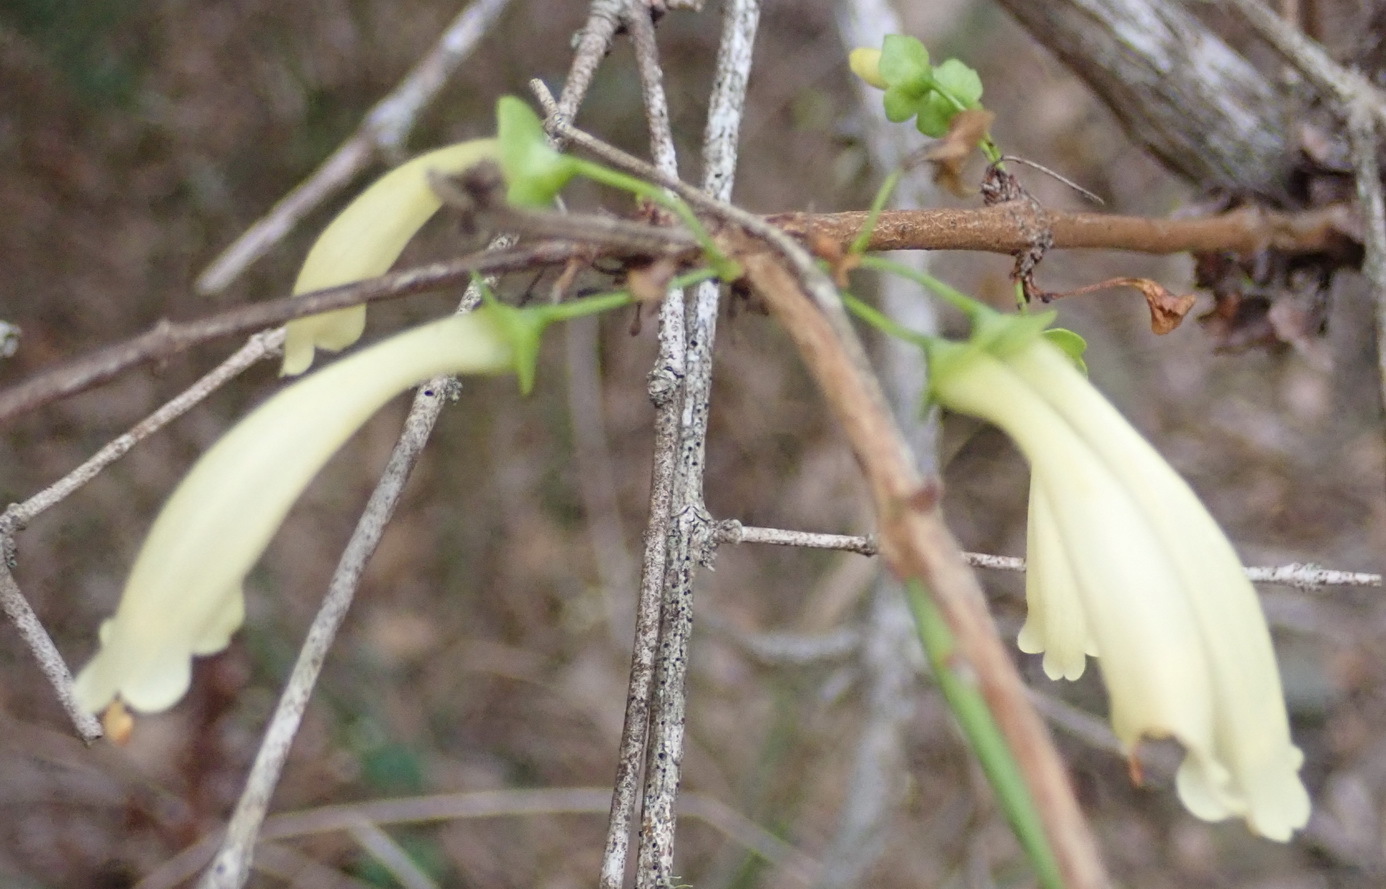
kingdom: Plantae
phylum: Tracheophyta
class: Magnoliopsida
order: Lamiales
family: Stilbaceae
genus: Halleria
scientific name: Halleria lucida
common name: Tree fuschia
